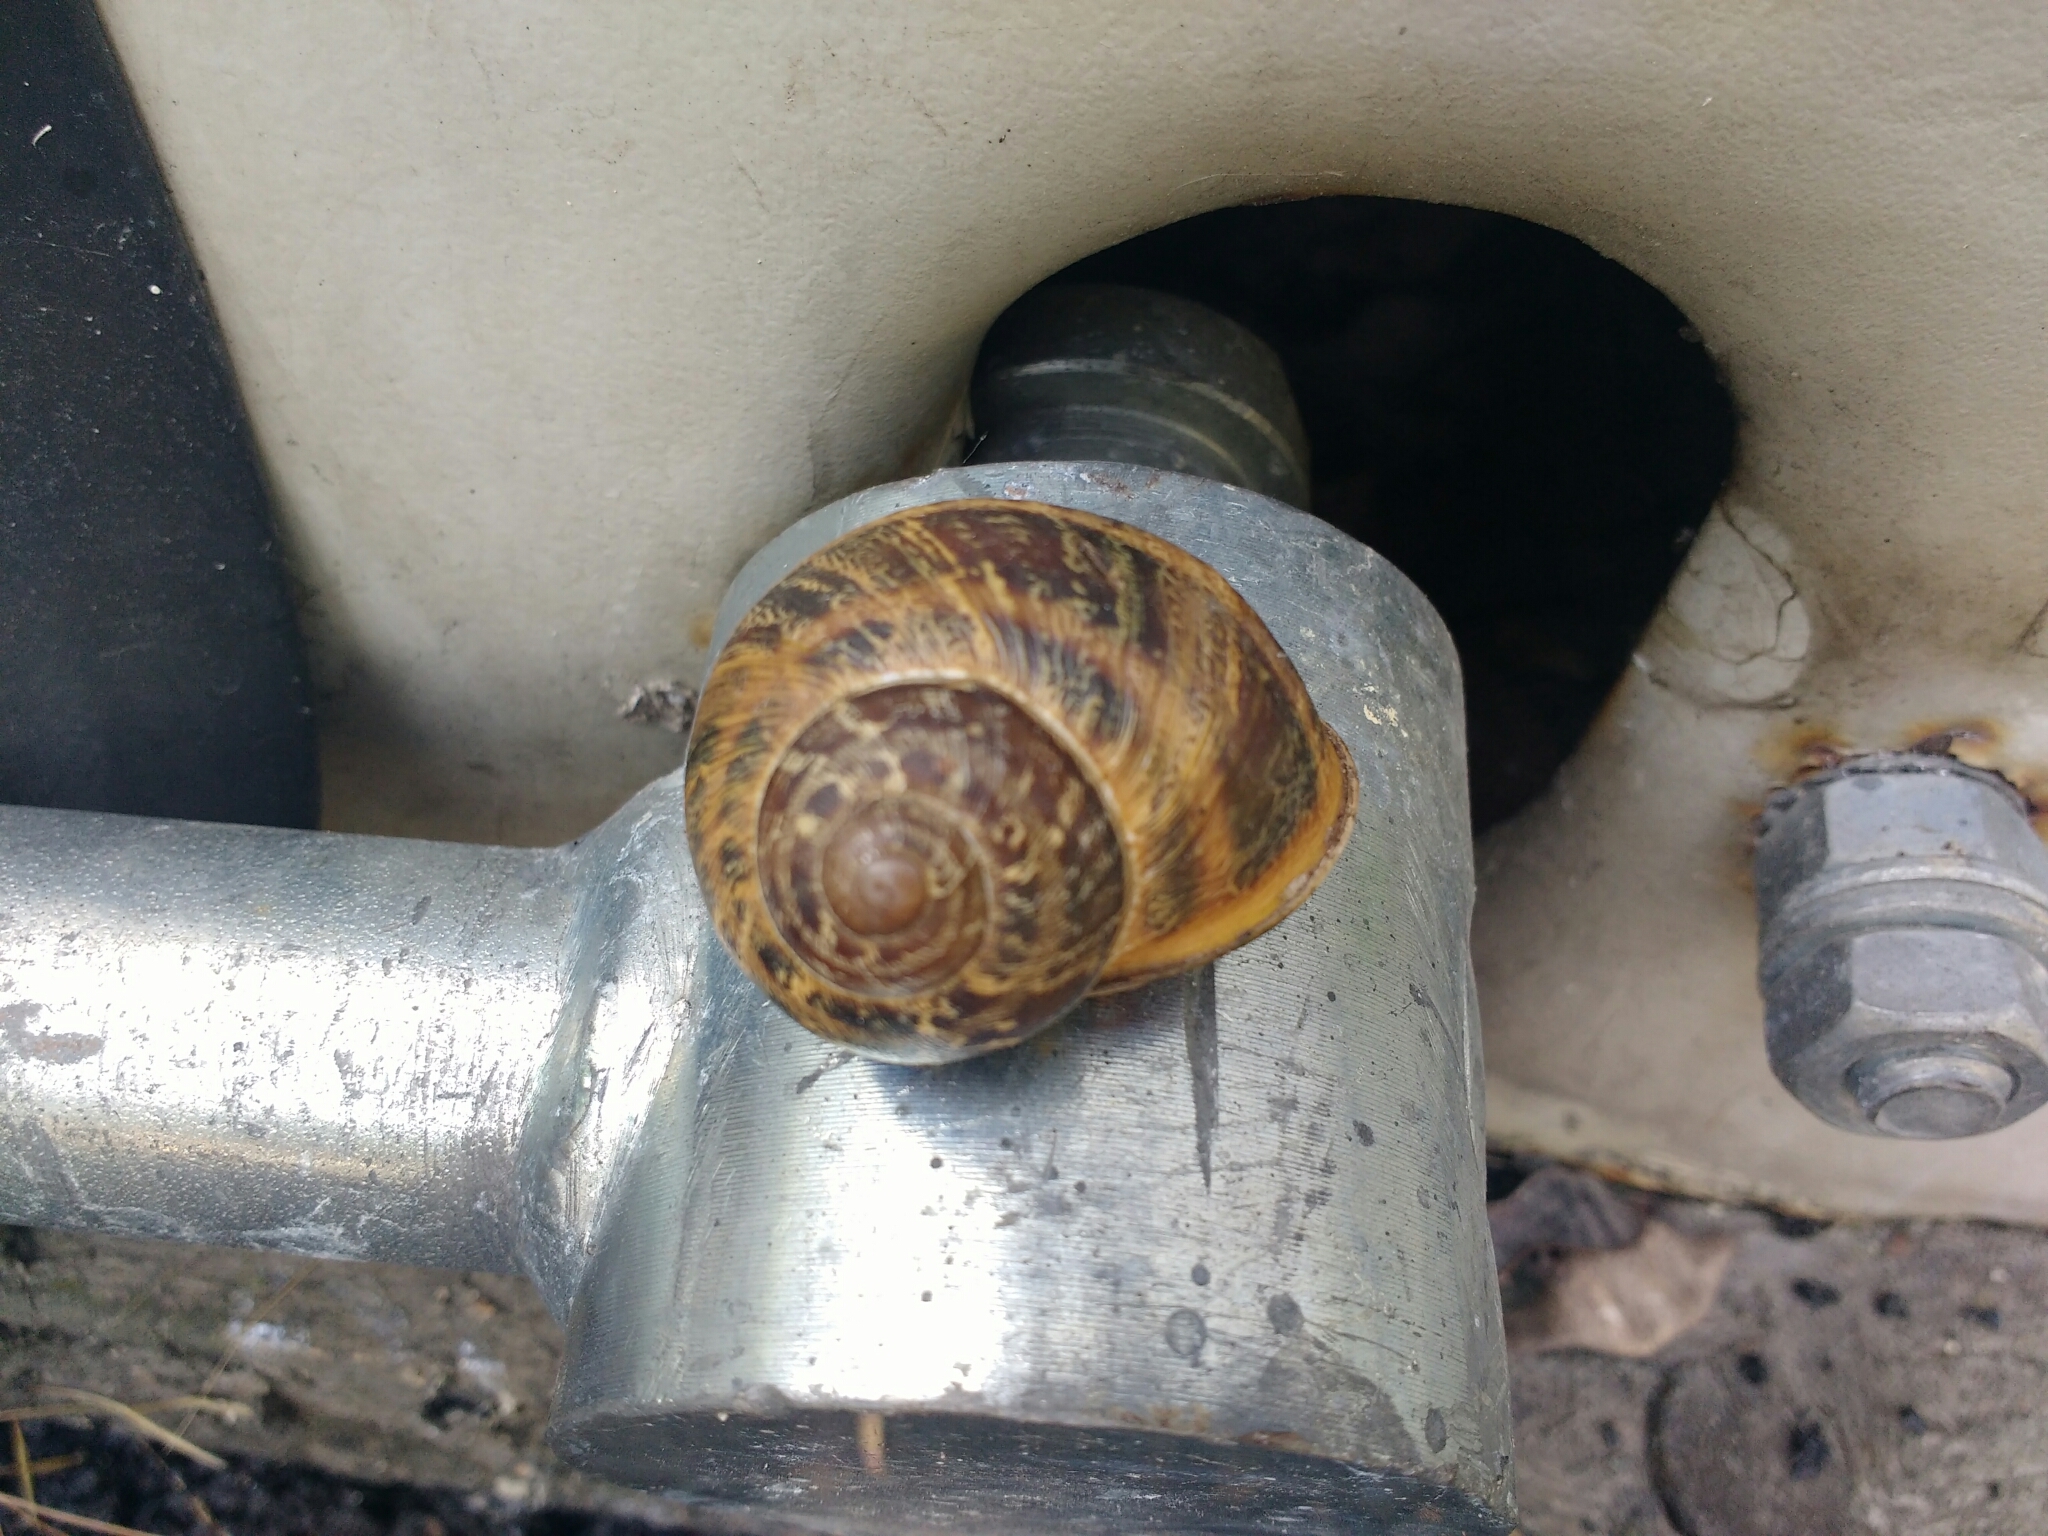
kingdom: Animalia
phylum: Mollusca
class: Gastropoda
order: Stylommatophora
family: Helicidae
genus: Cornu
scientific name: Cornu aspersum
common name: Brown garden snail
